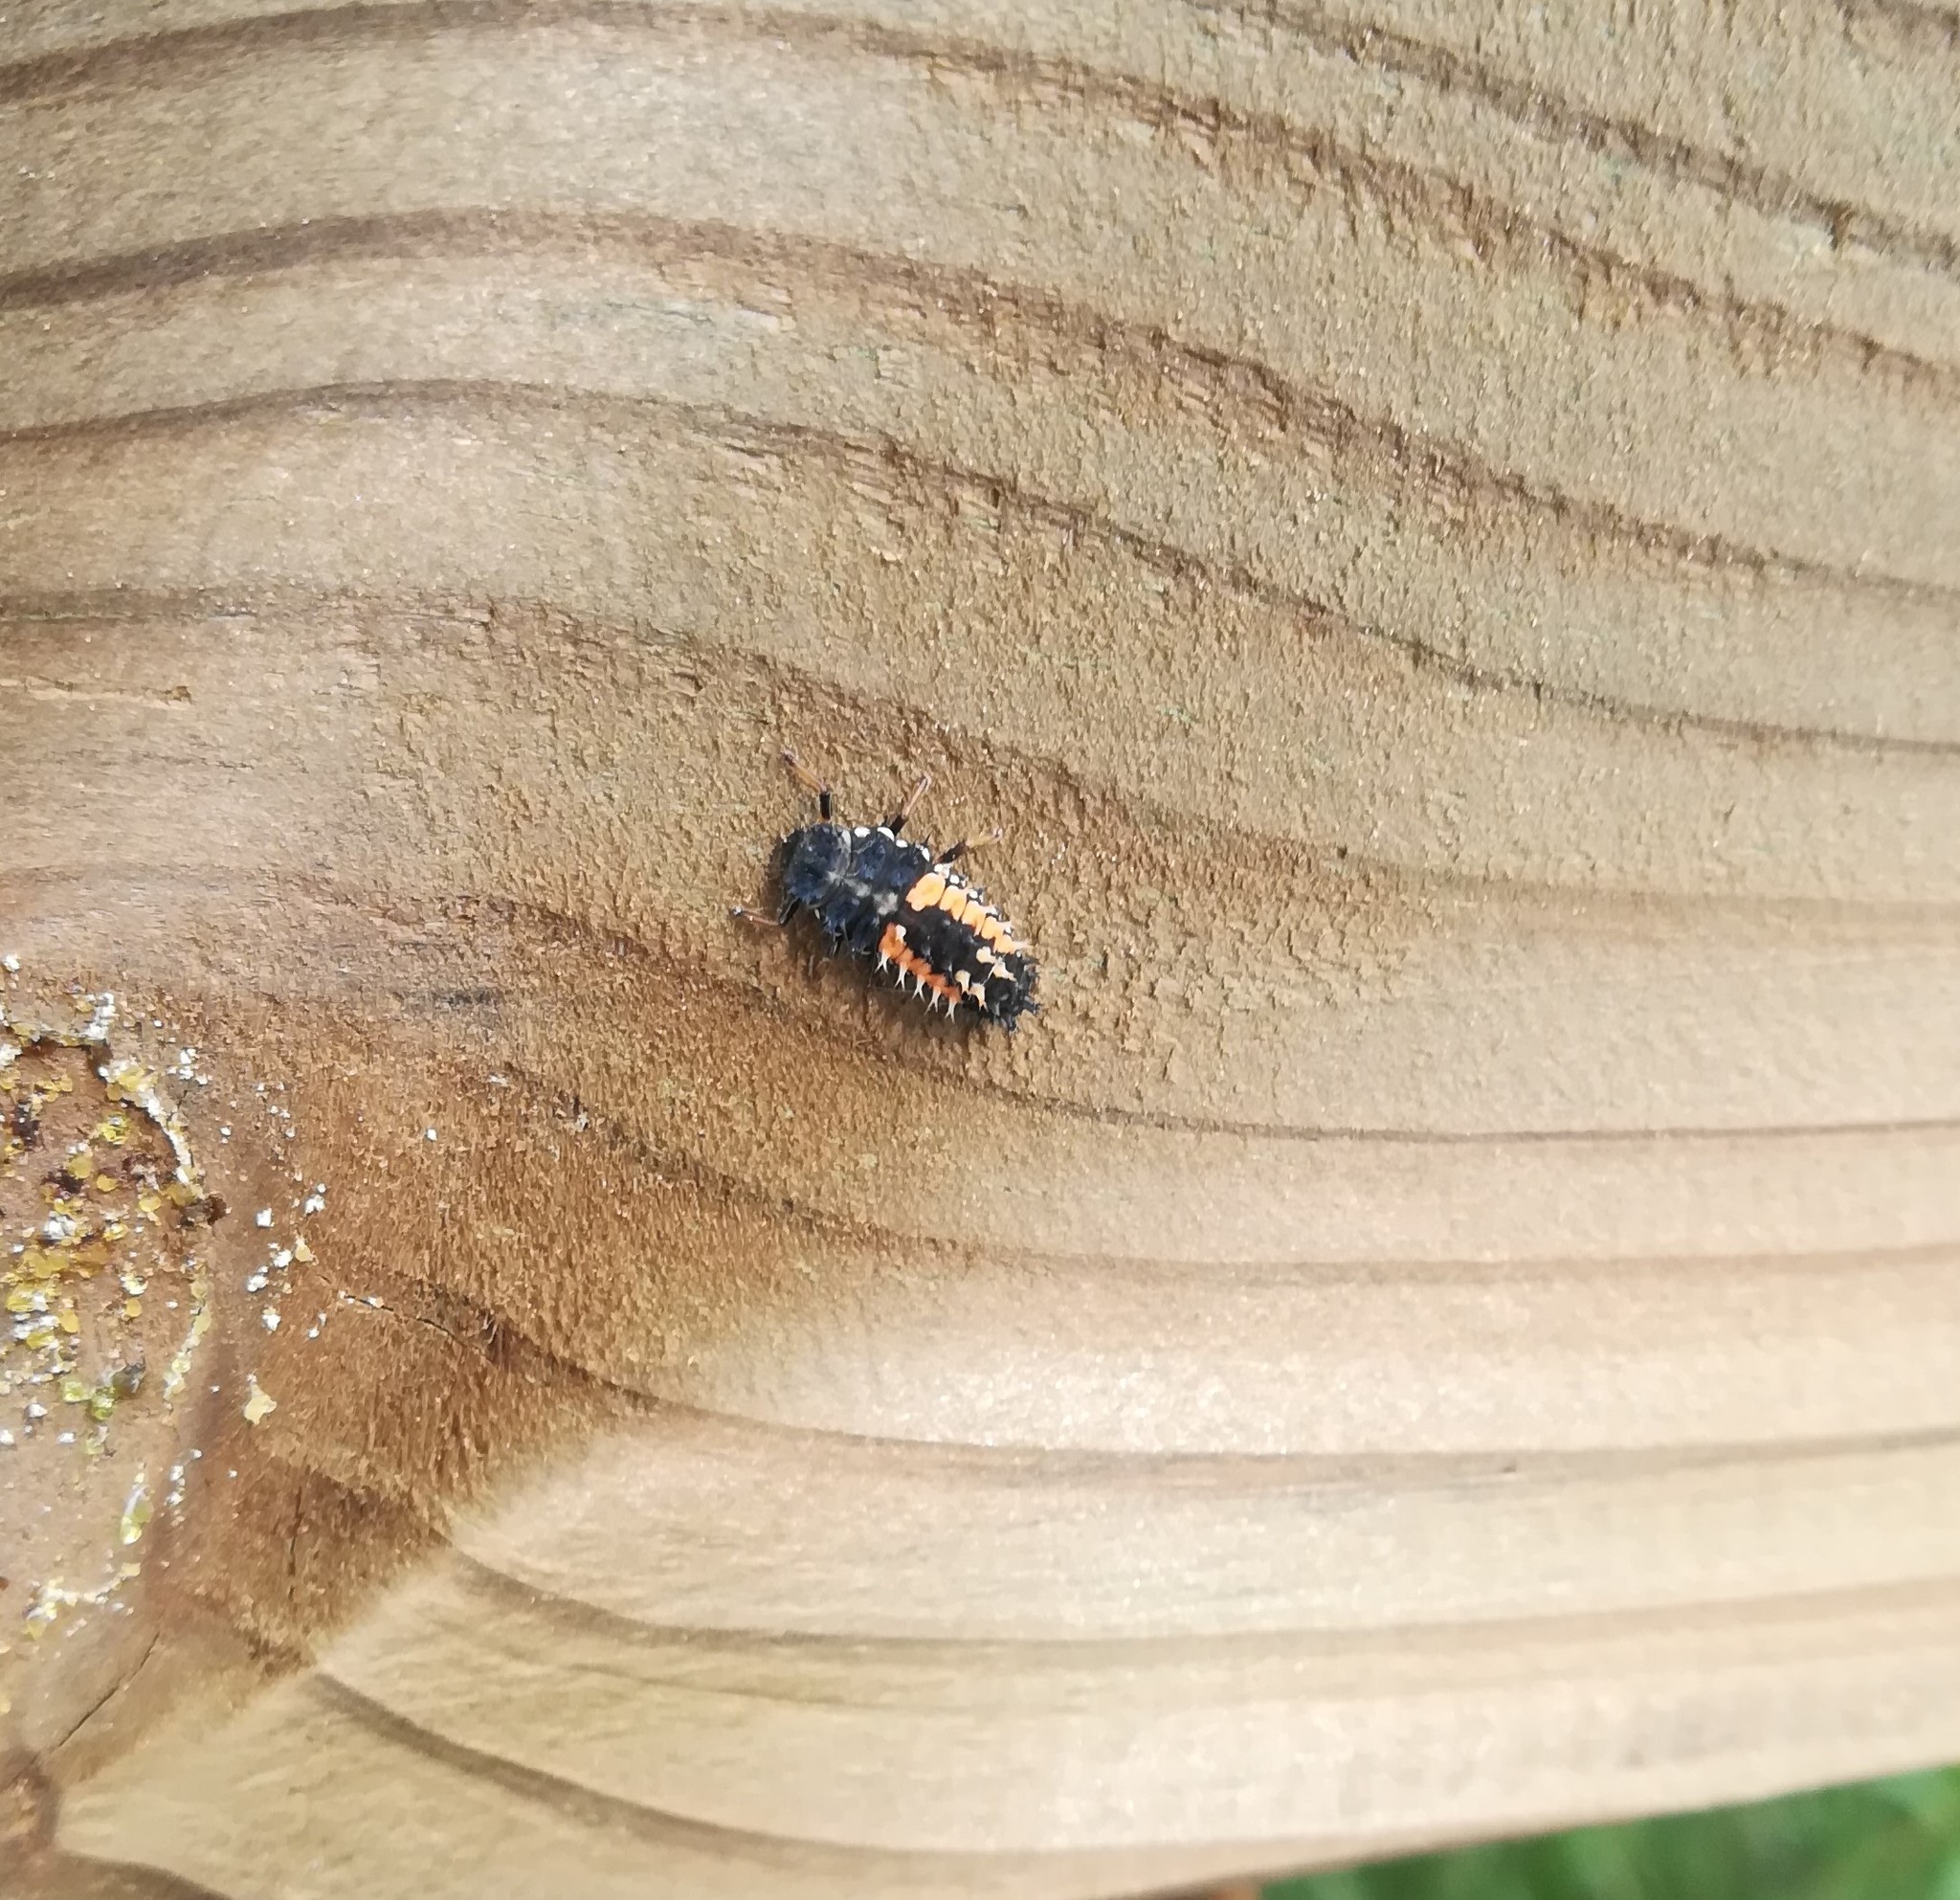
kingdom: Animalia
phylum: Arthropoda
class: Insecta
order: Coleoptera
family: Coccinellidae
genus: Harmonia
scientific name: Harmonia axyridis
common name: Harlequin ladybird
